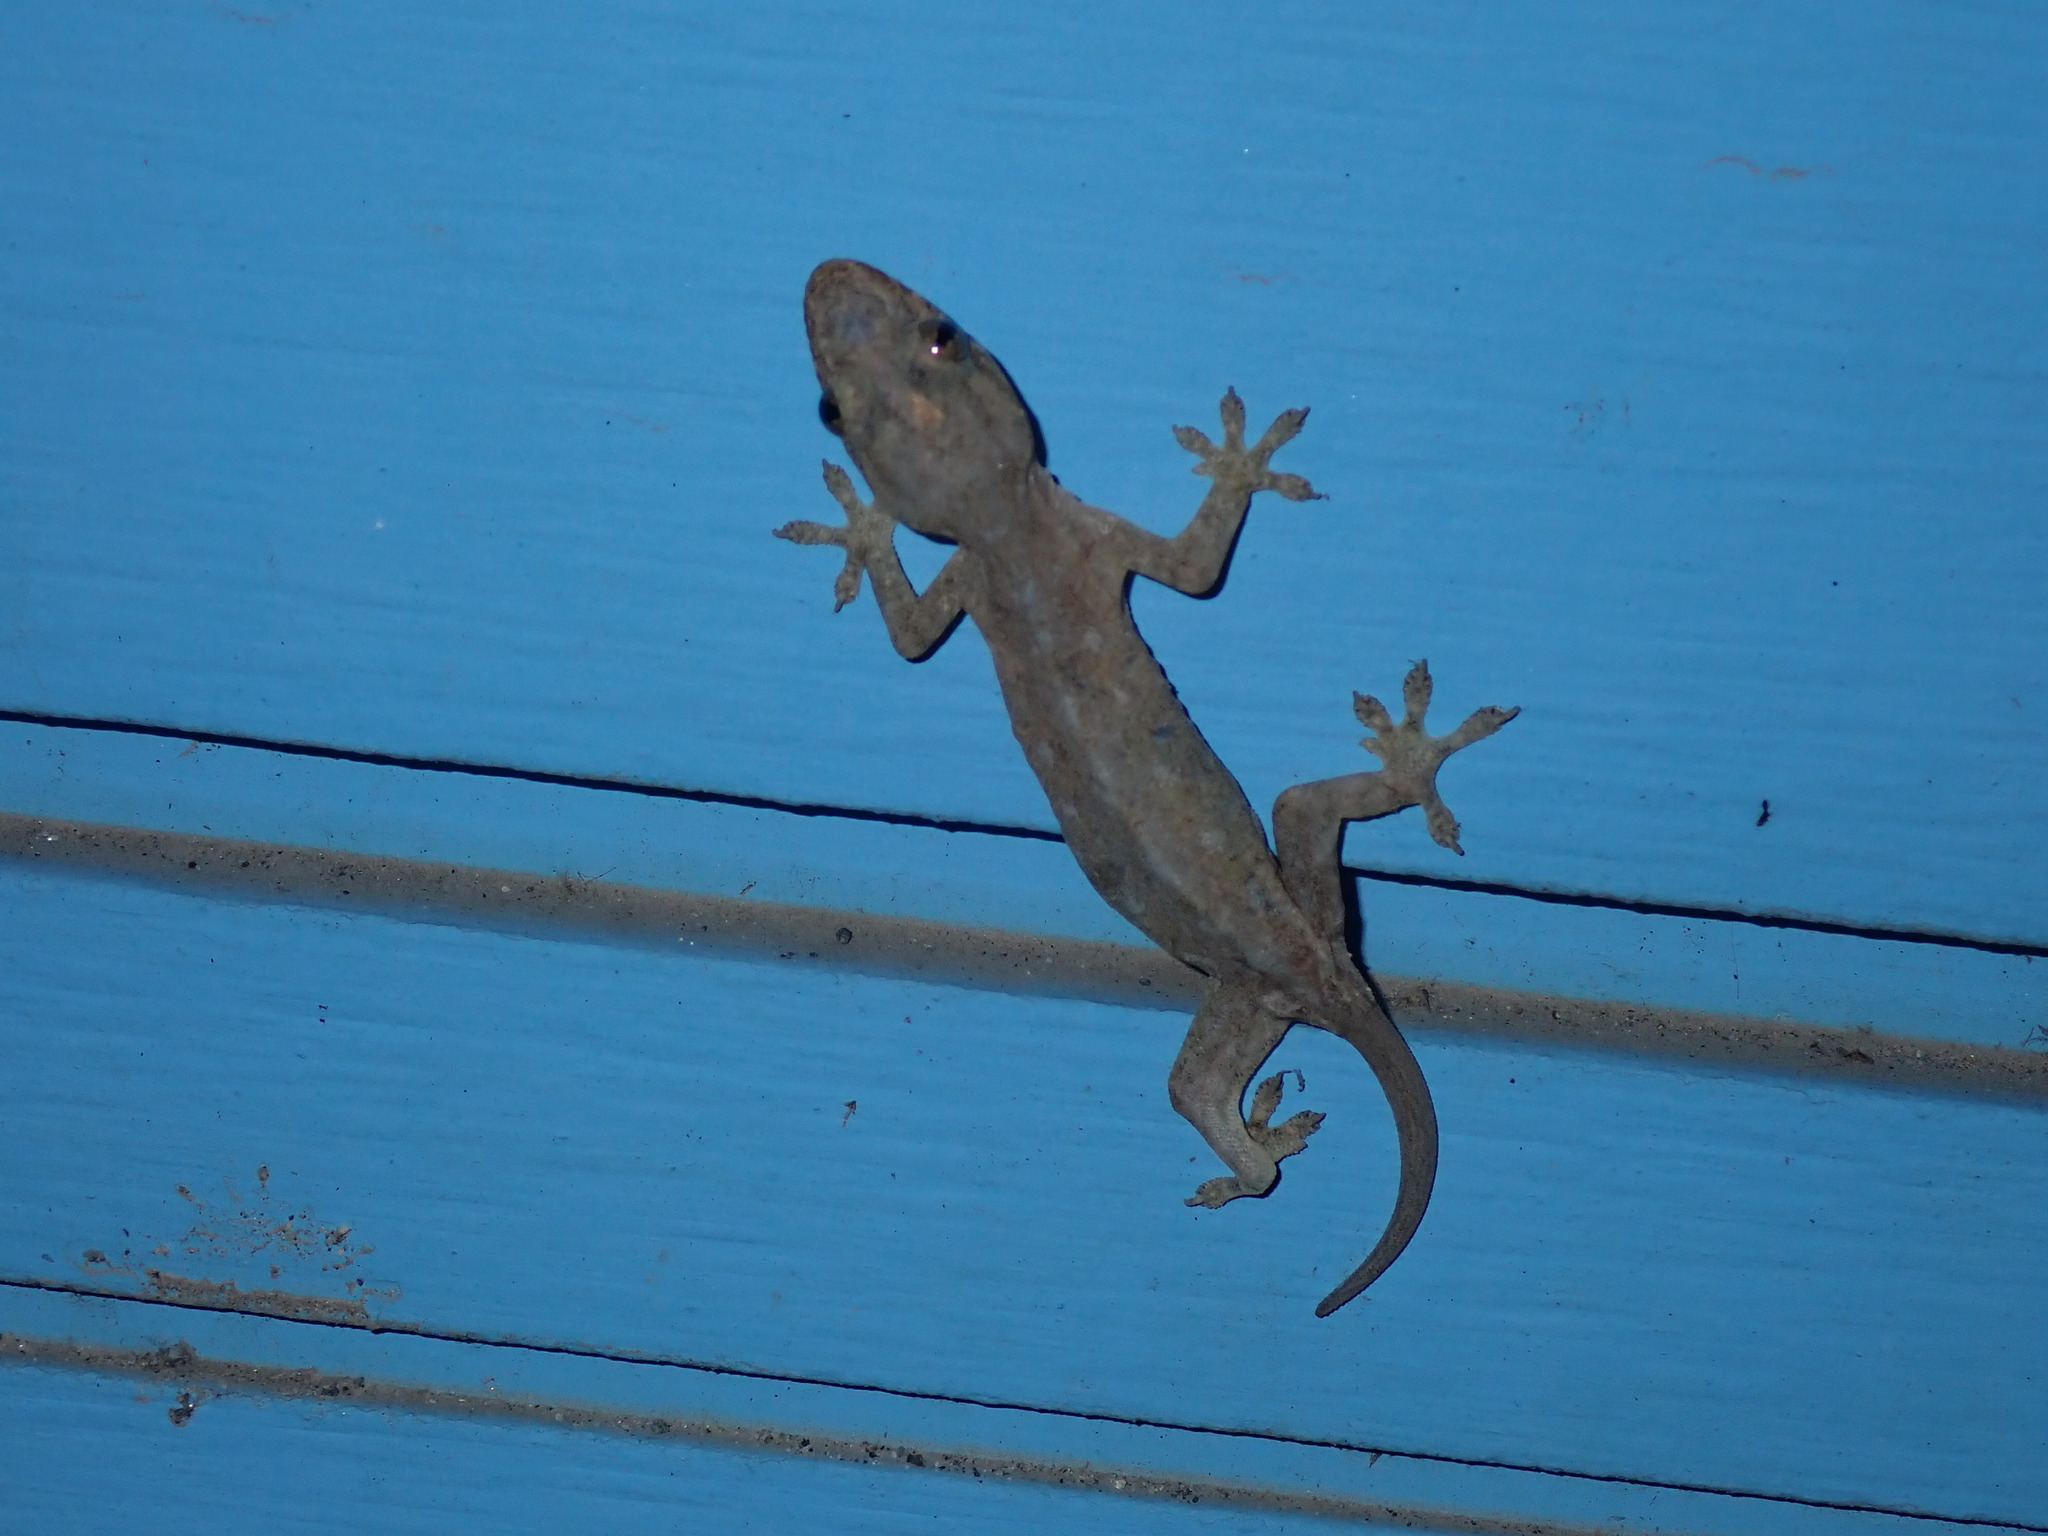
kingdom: Animalia
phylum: Chordata
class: Squamata
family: Gekkonidae
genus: Hemidactylus
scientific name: Hemidactylus frenatus
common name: Common house gecko
